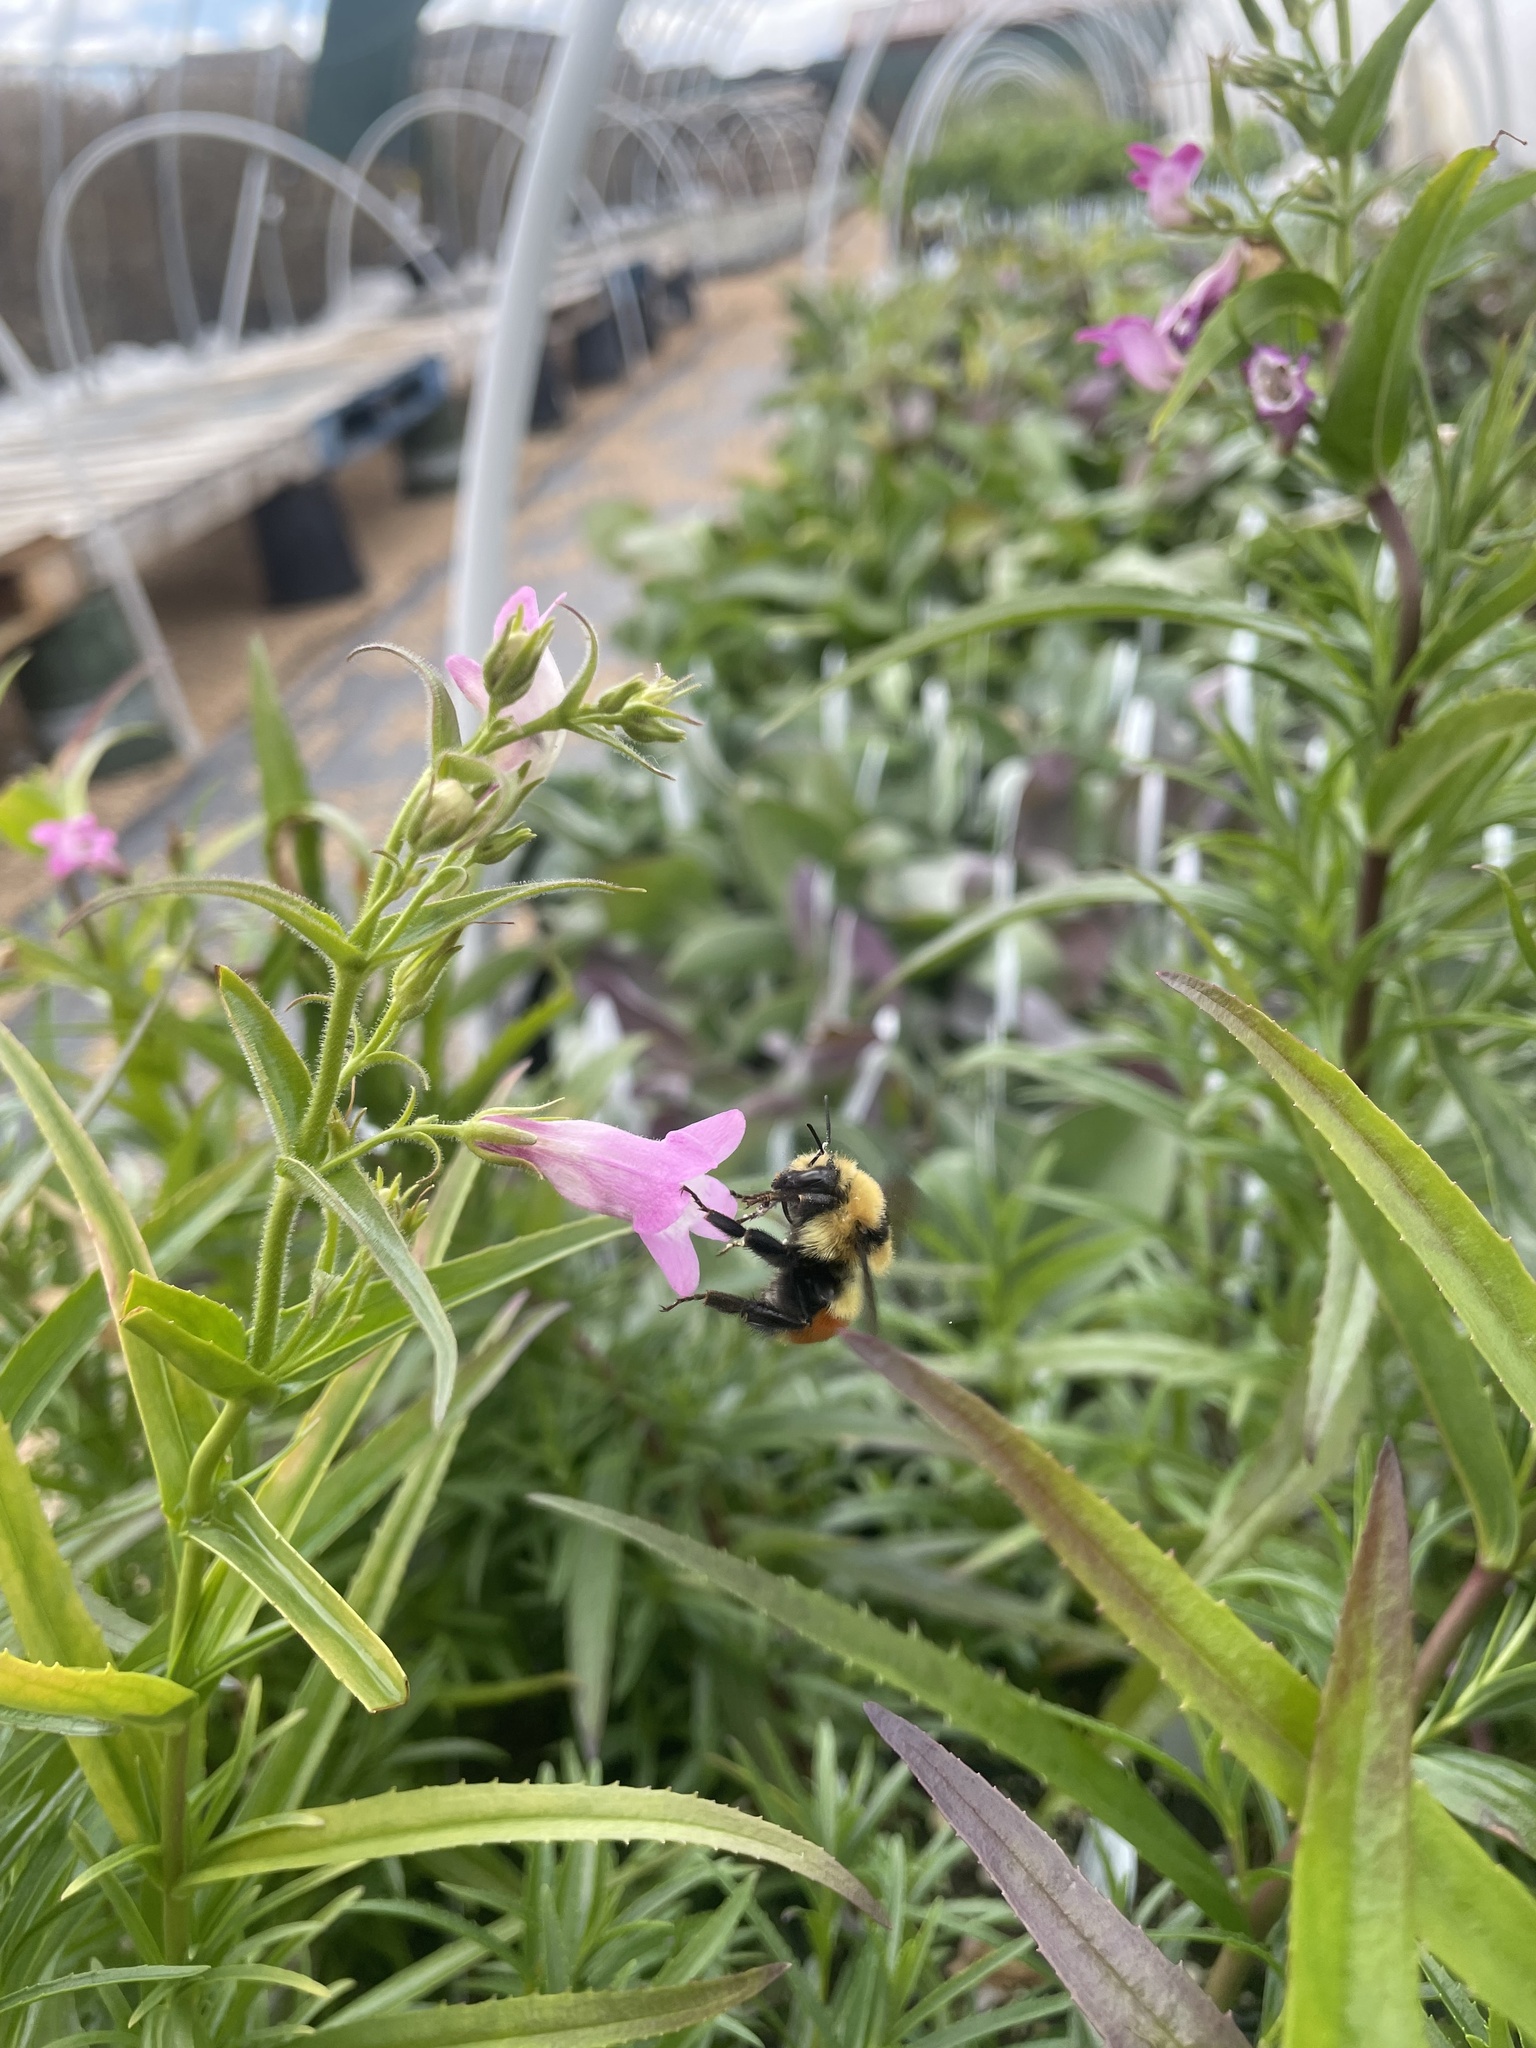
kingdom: Animalia
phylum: Arthropoda
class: Insecta
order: Hymenoptera
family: Apidae
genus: Bombus
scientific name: Bombus huntii
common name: Hunt bumble bee
